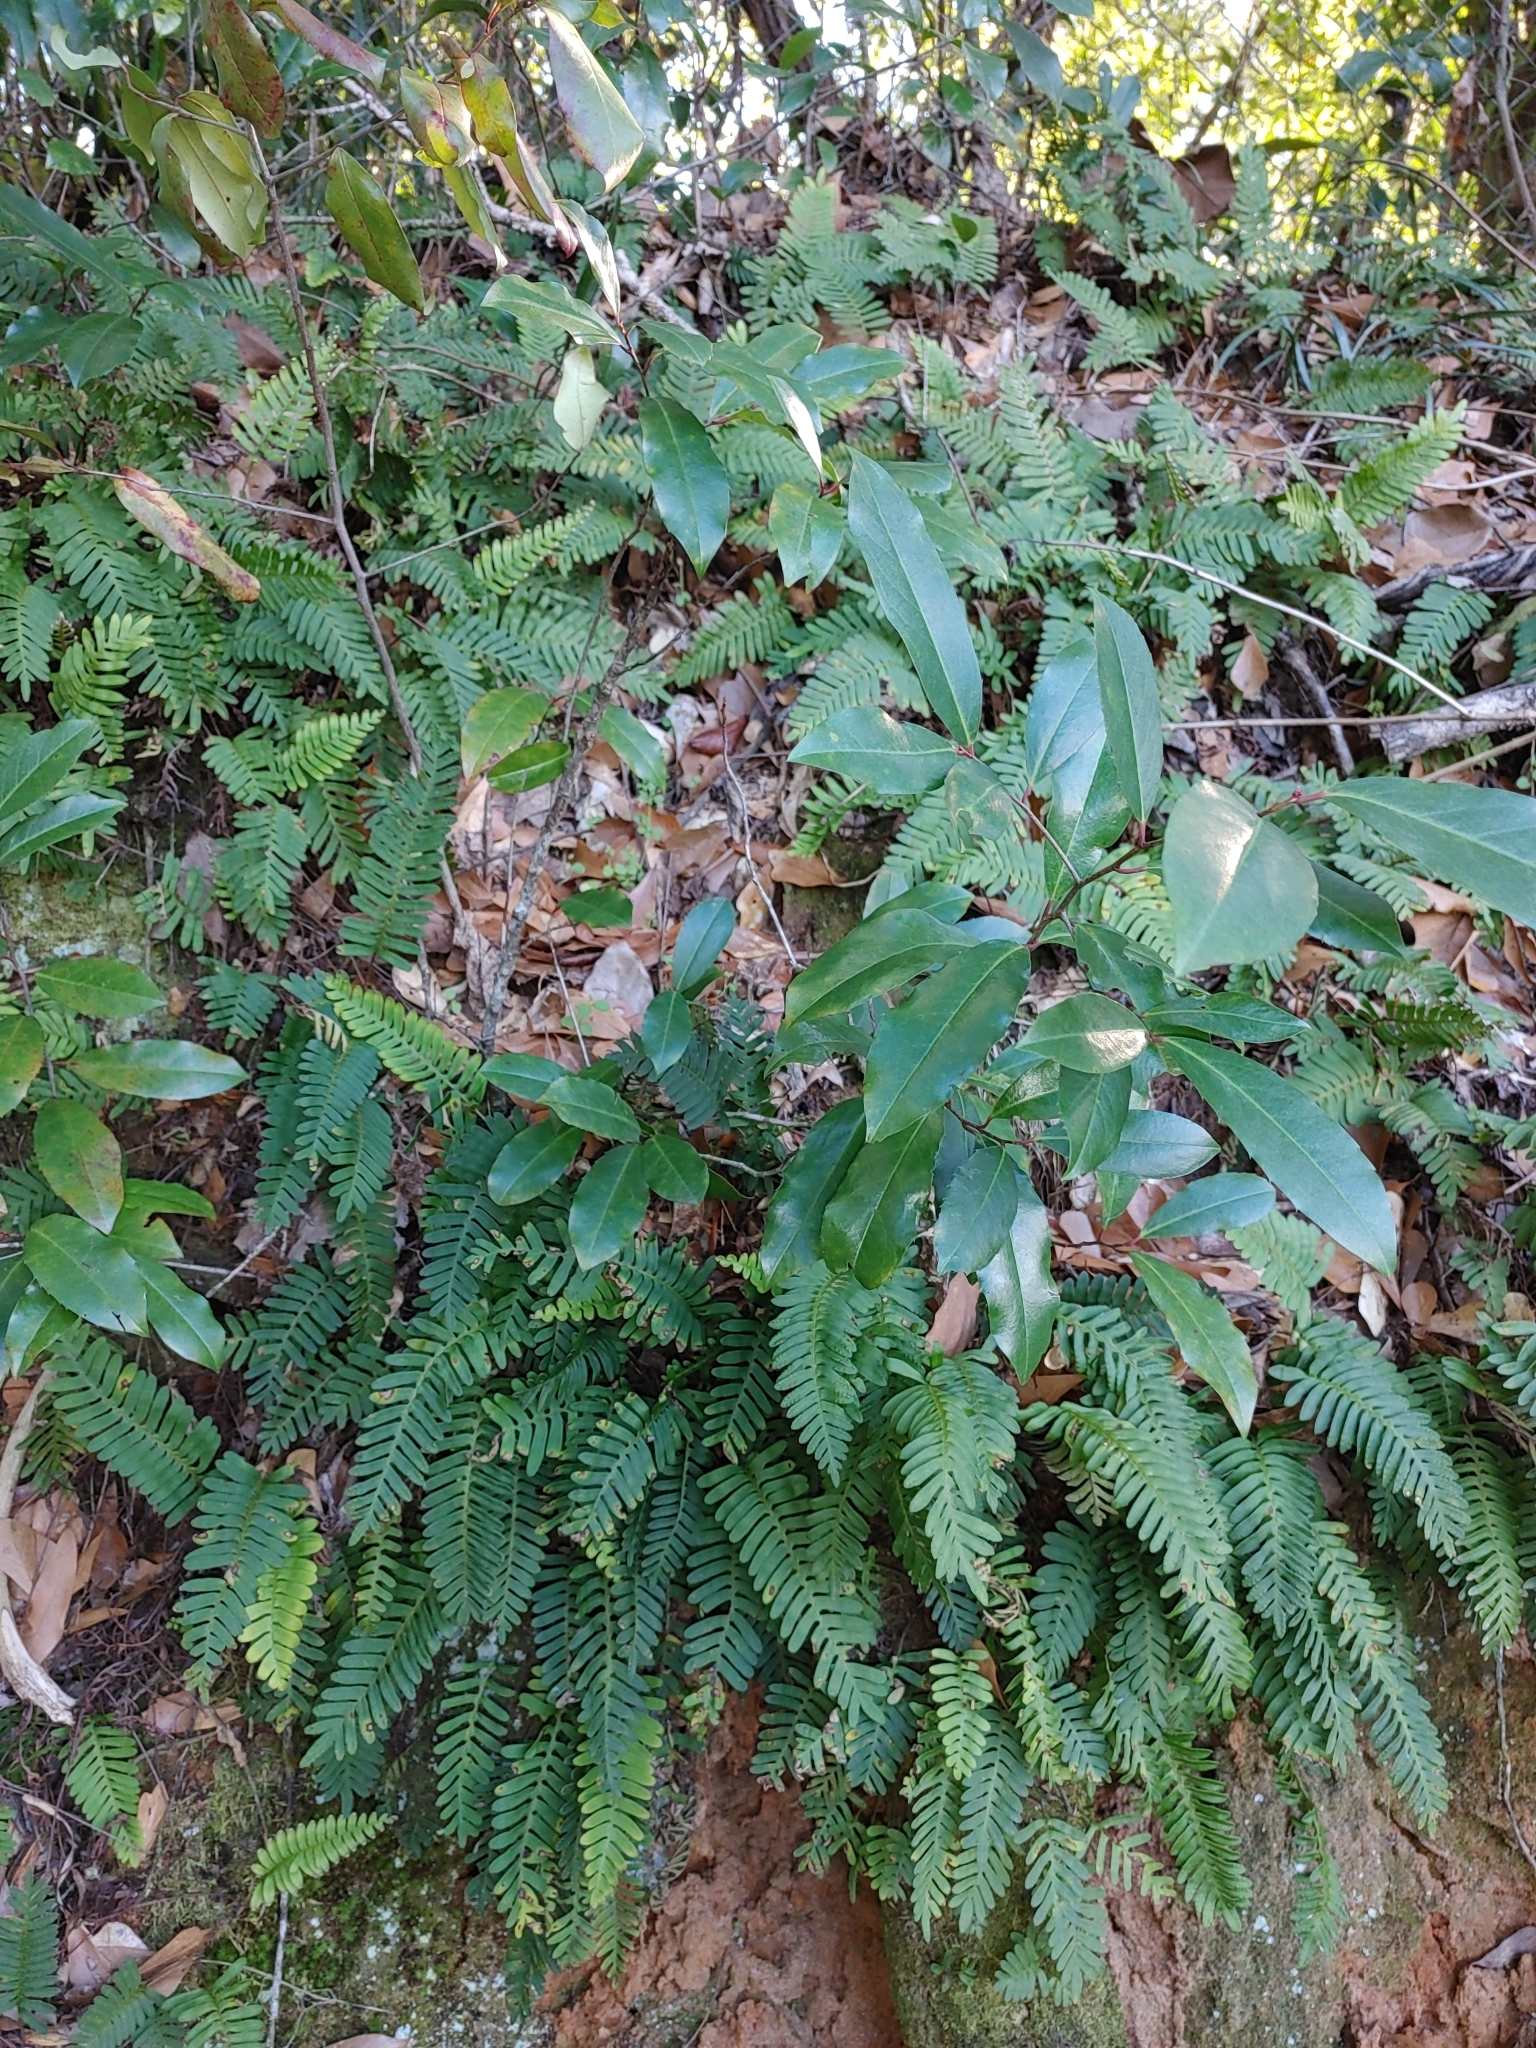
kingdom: Plantae
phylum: Tracheophyta
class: Polypodiopsida
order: Polypodiales
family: Polypodiaceae
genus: Pleopeltis
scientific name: Pleopeltis michauxiana
